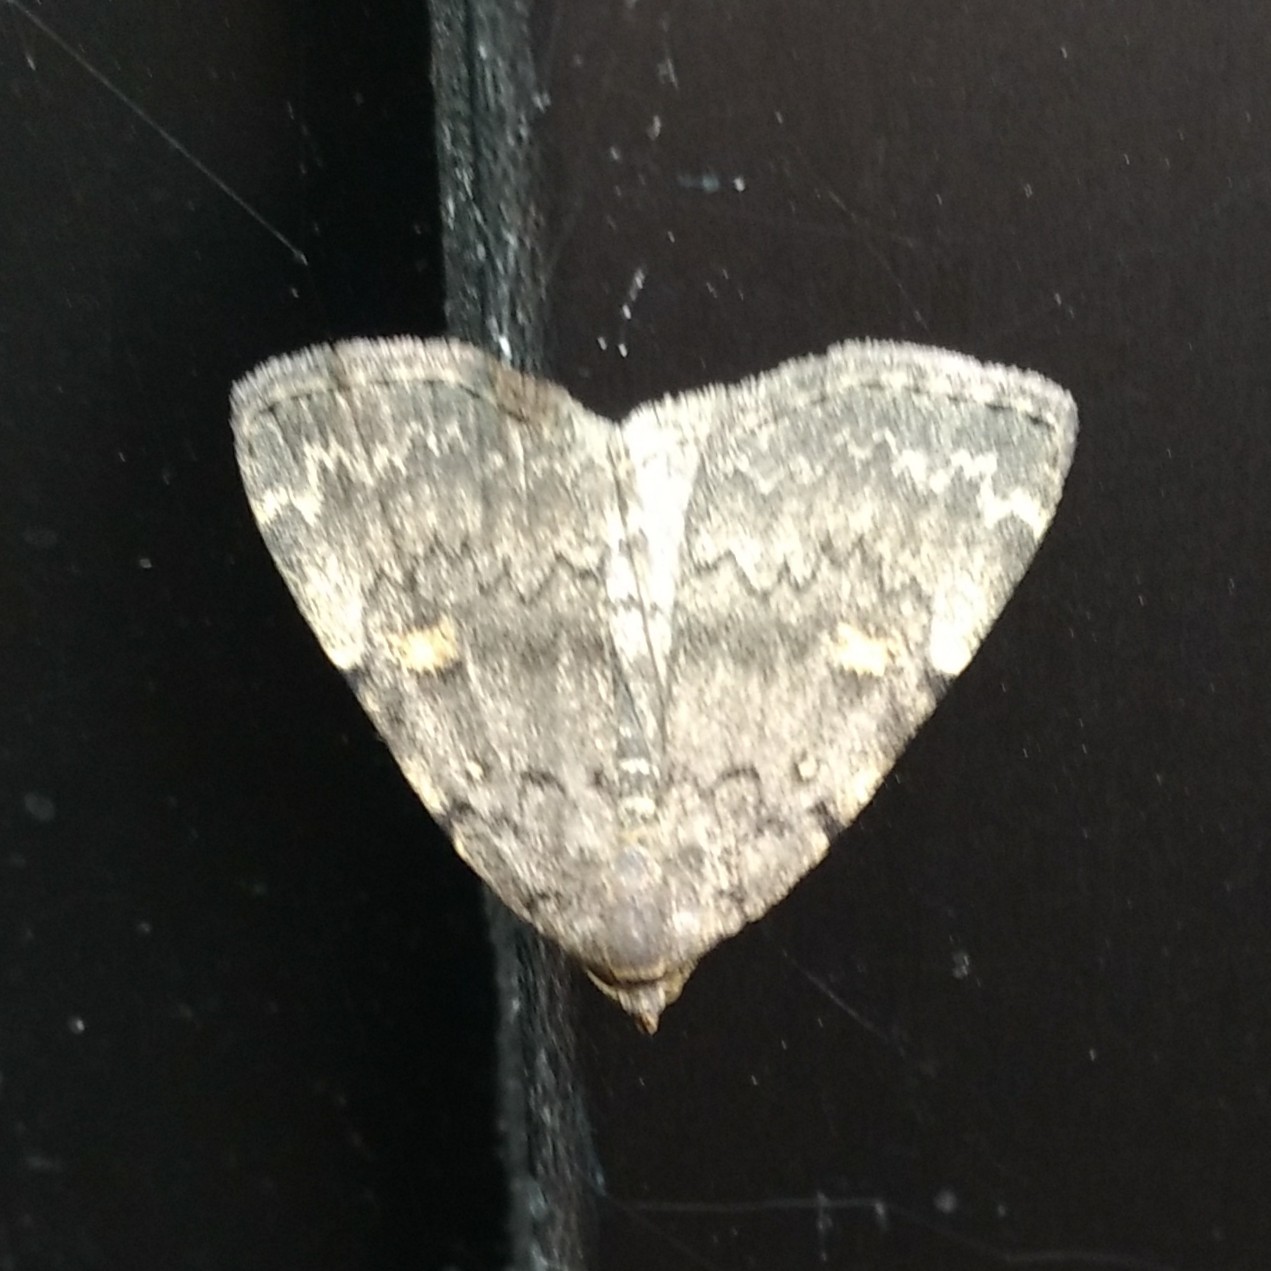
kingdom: Animalia
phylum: Arthropoda
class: Insecta
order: Lepidoptera
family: Erebidae
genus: Idia
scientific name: Idia aemula
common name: Common idia moth
